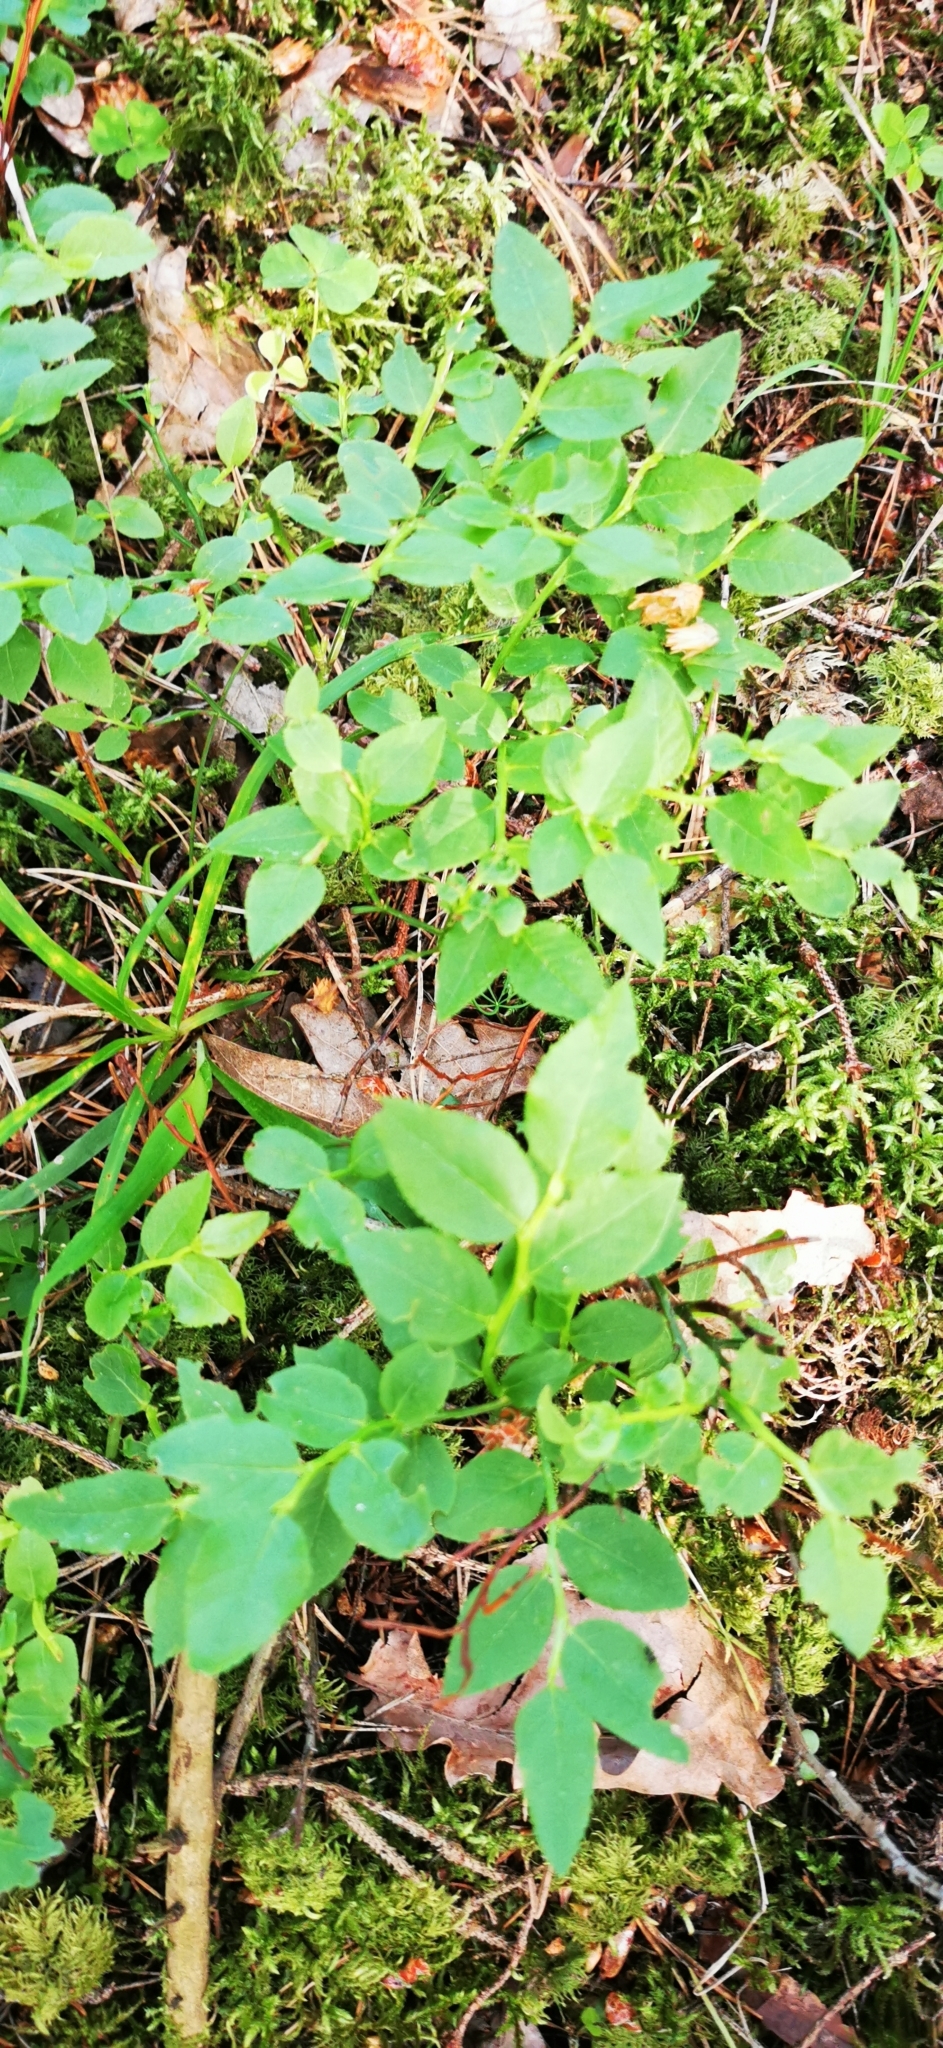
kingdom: Plantae
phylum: Tracheophyta
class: Magnoliopsida
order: Ericales
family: Ericaceae
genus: Vaccinium
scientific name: Vaccinium myrtillus
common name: Bilberry
